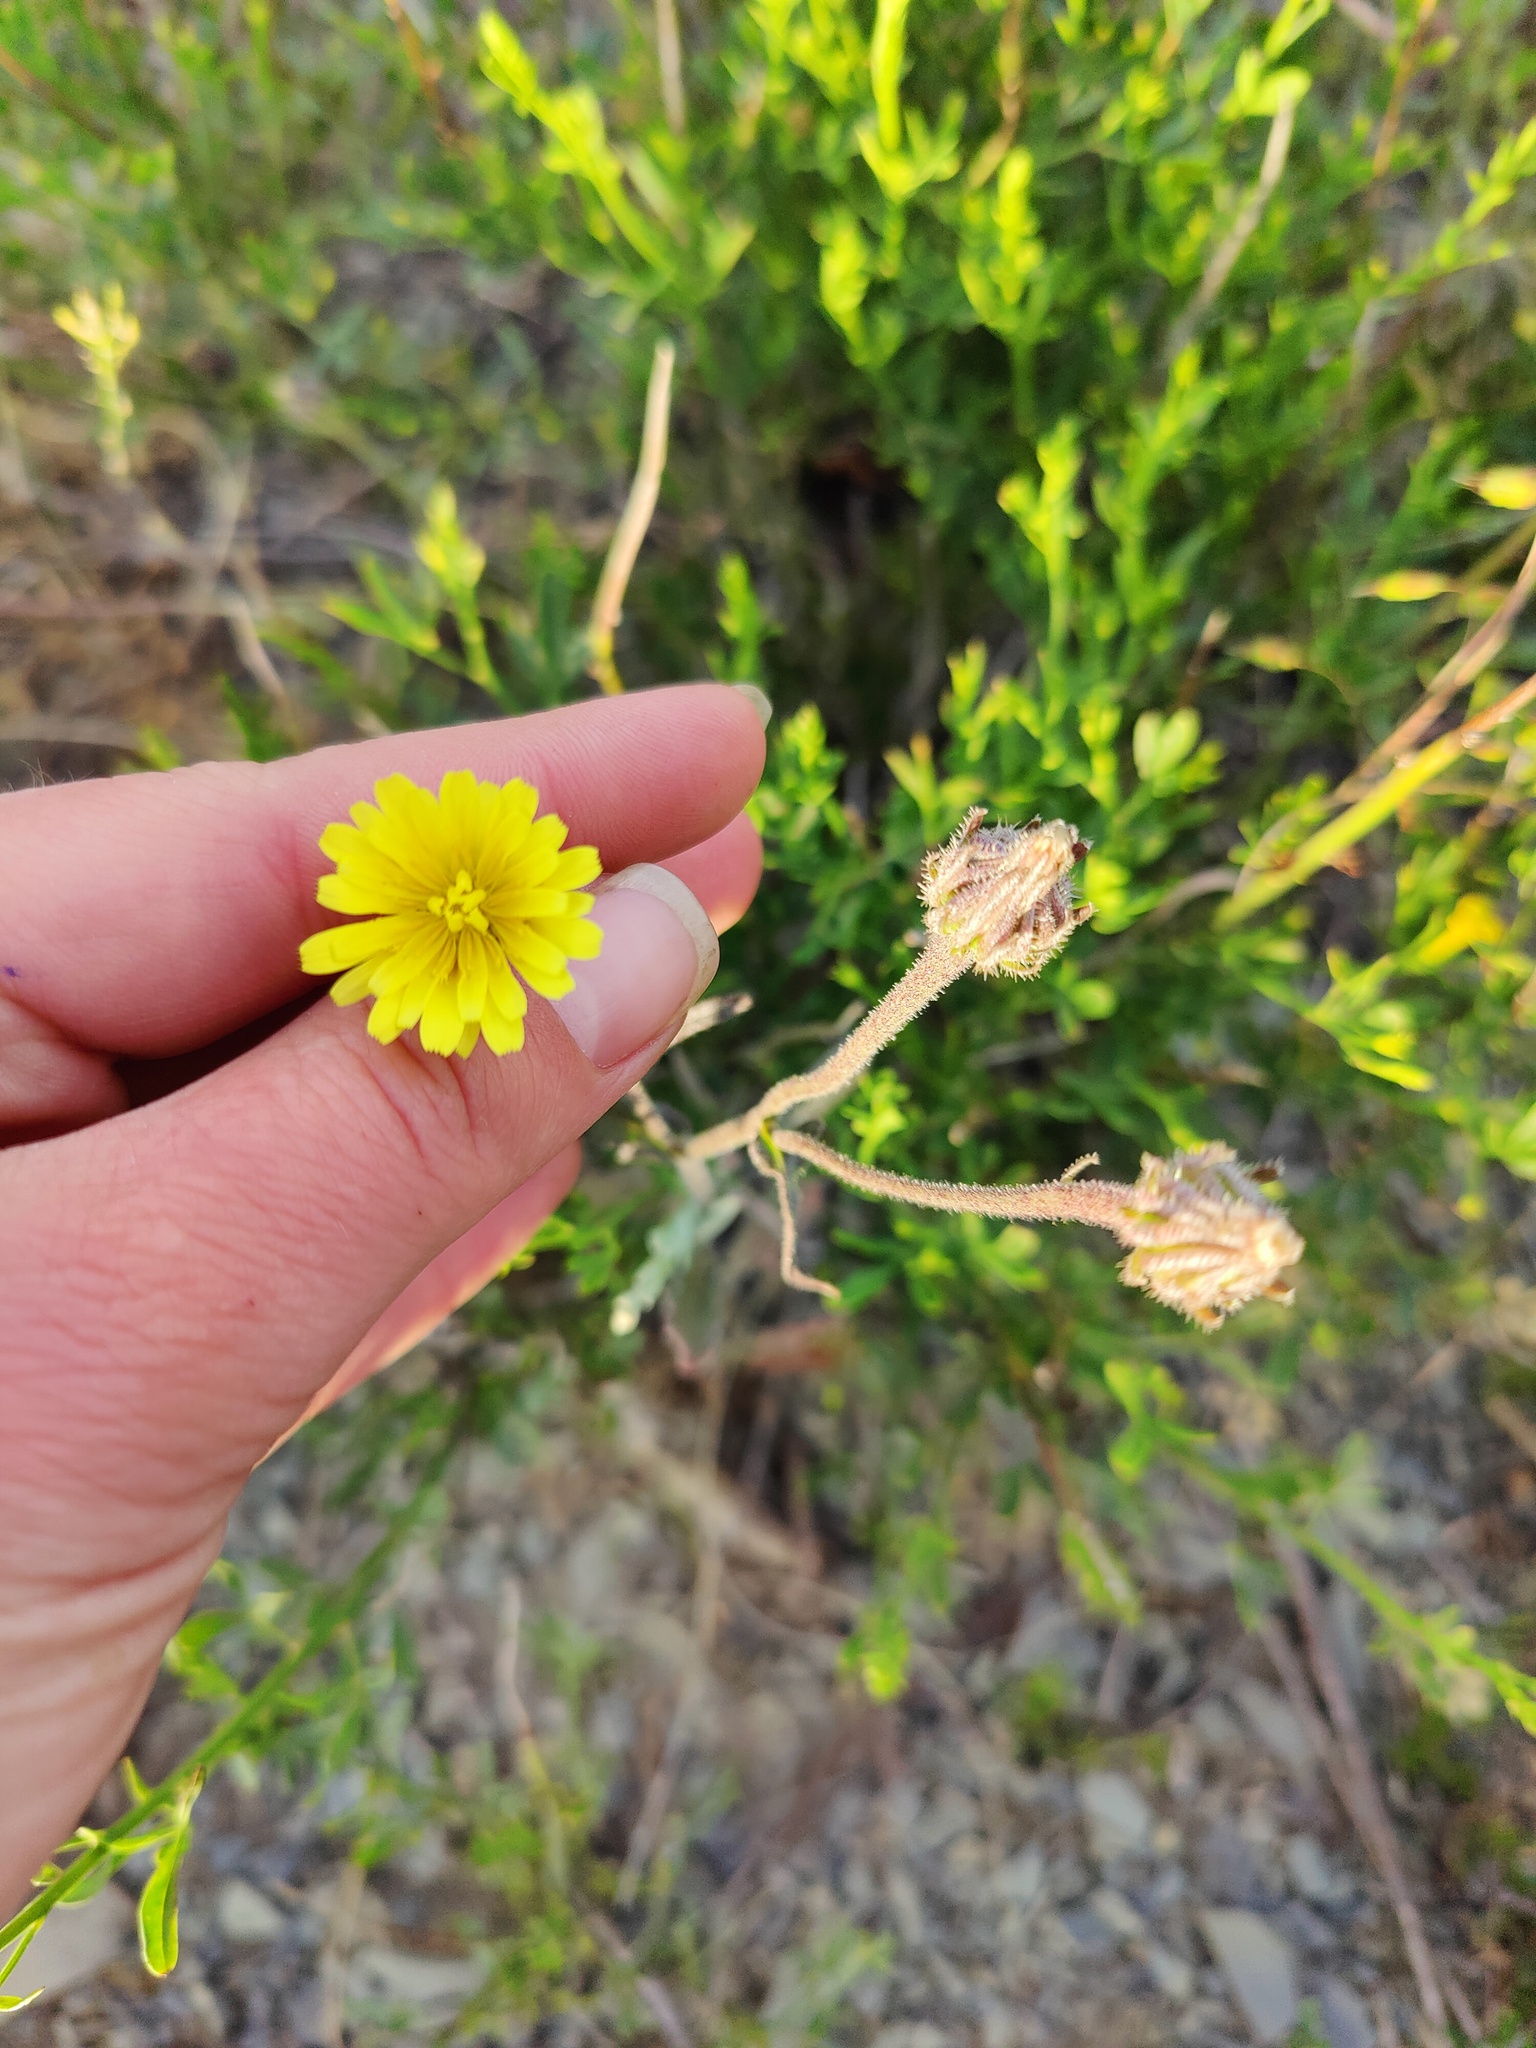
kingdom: Plantae
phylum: Tracheophyta
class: Magnoliopsida
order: Asterales
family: Asteraceae
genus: Picris
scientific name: Picris pauciflora
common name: Smallflower oxtongue
